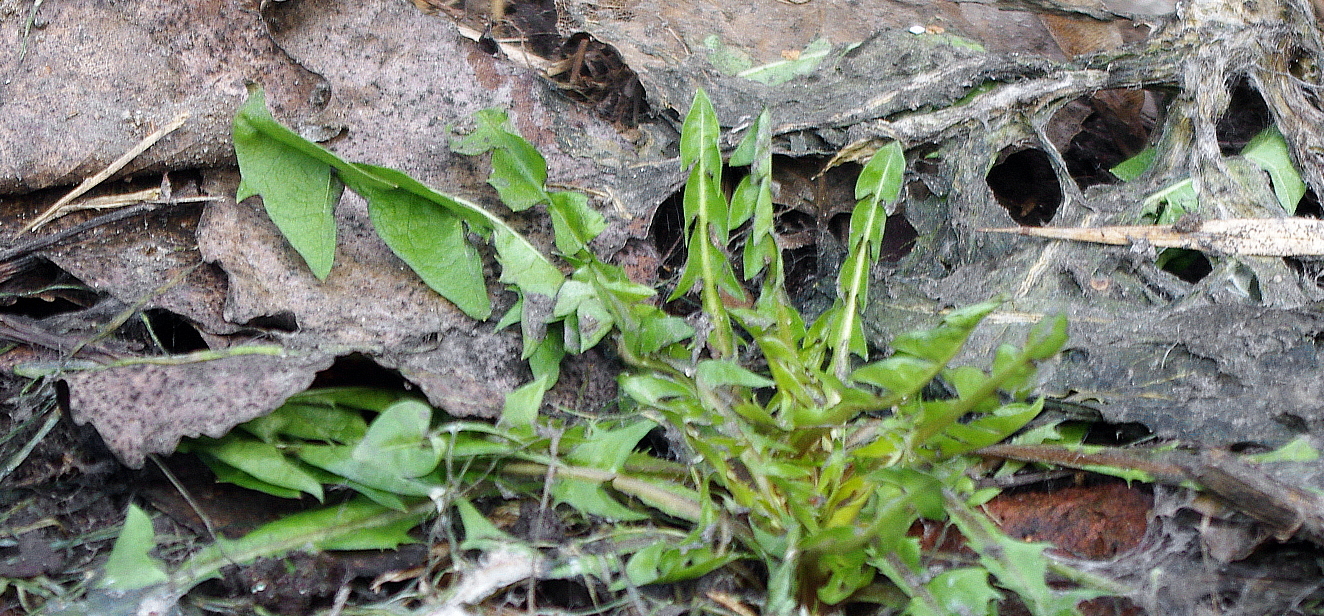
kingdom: Plantae
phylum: Tracheophyta
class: Magnoliopsida
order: Asterales
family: Asteraceae
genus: Taraxacum
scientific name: Taraxacum officinale
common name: Common dandelion
